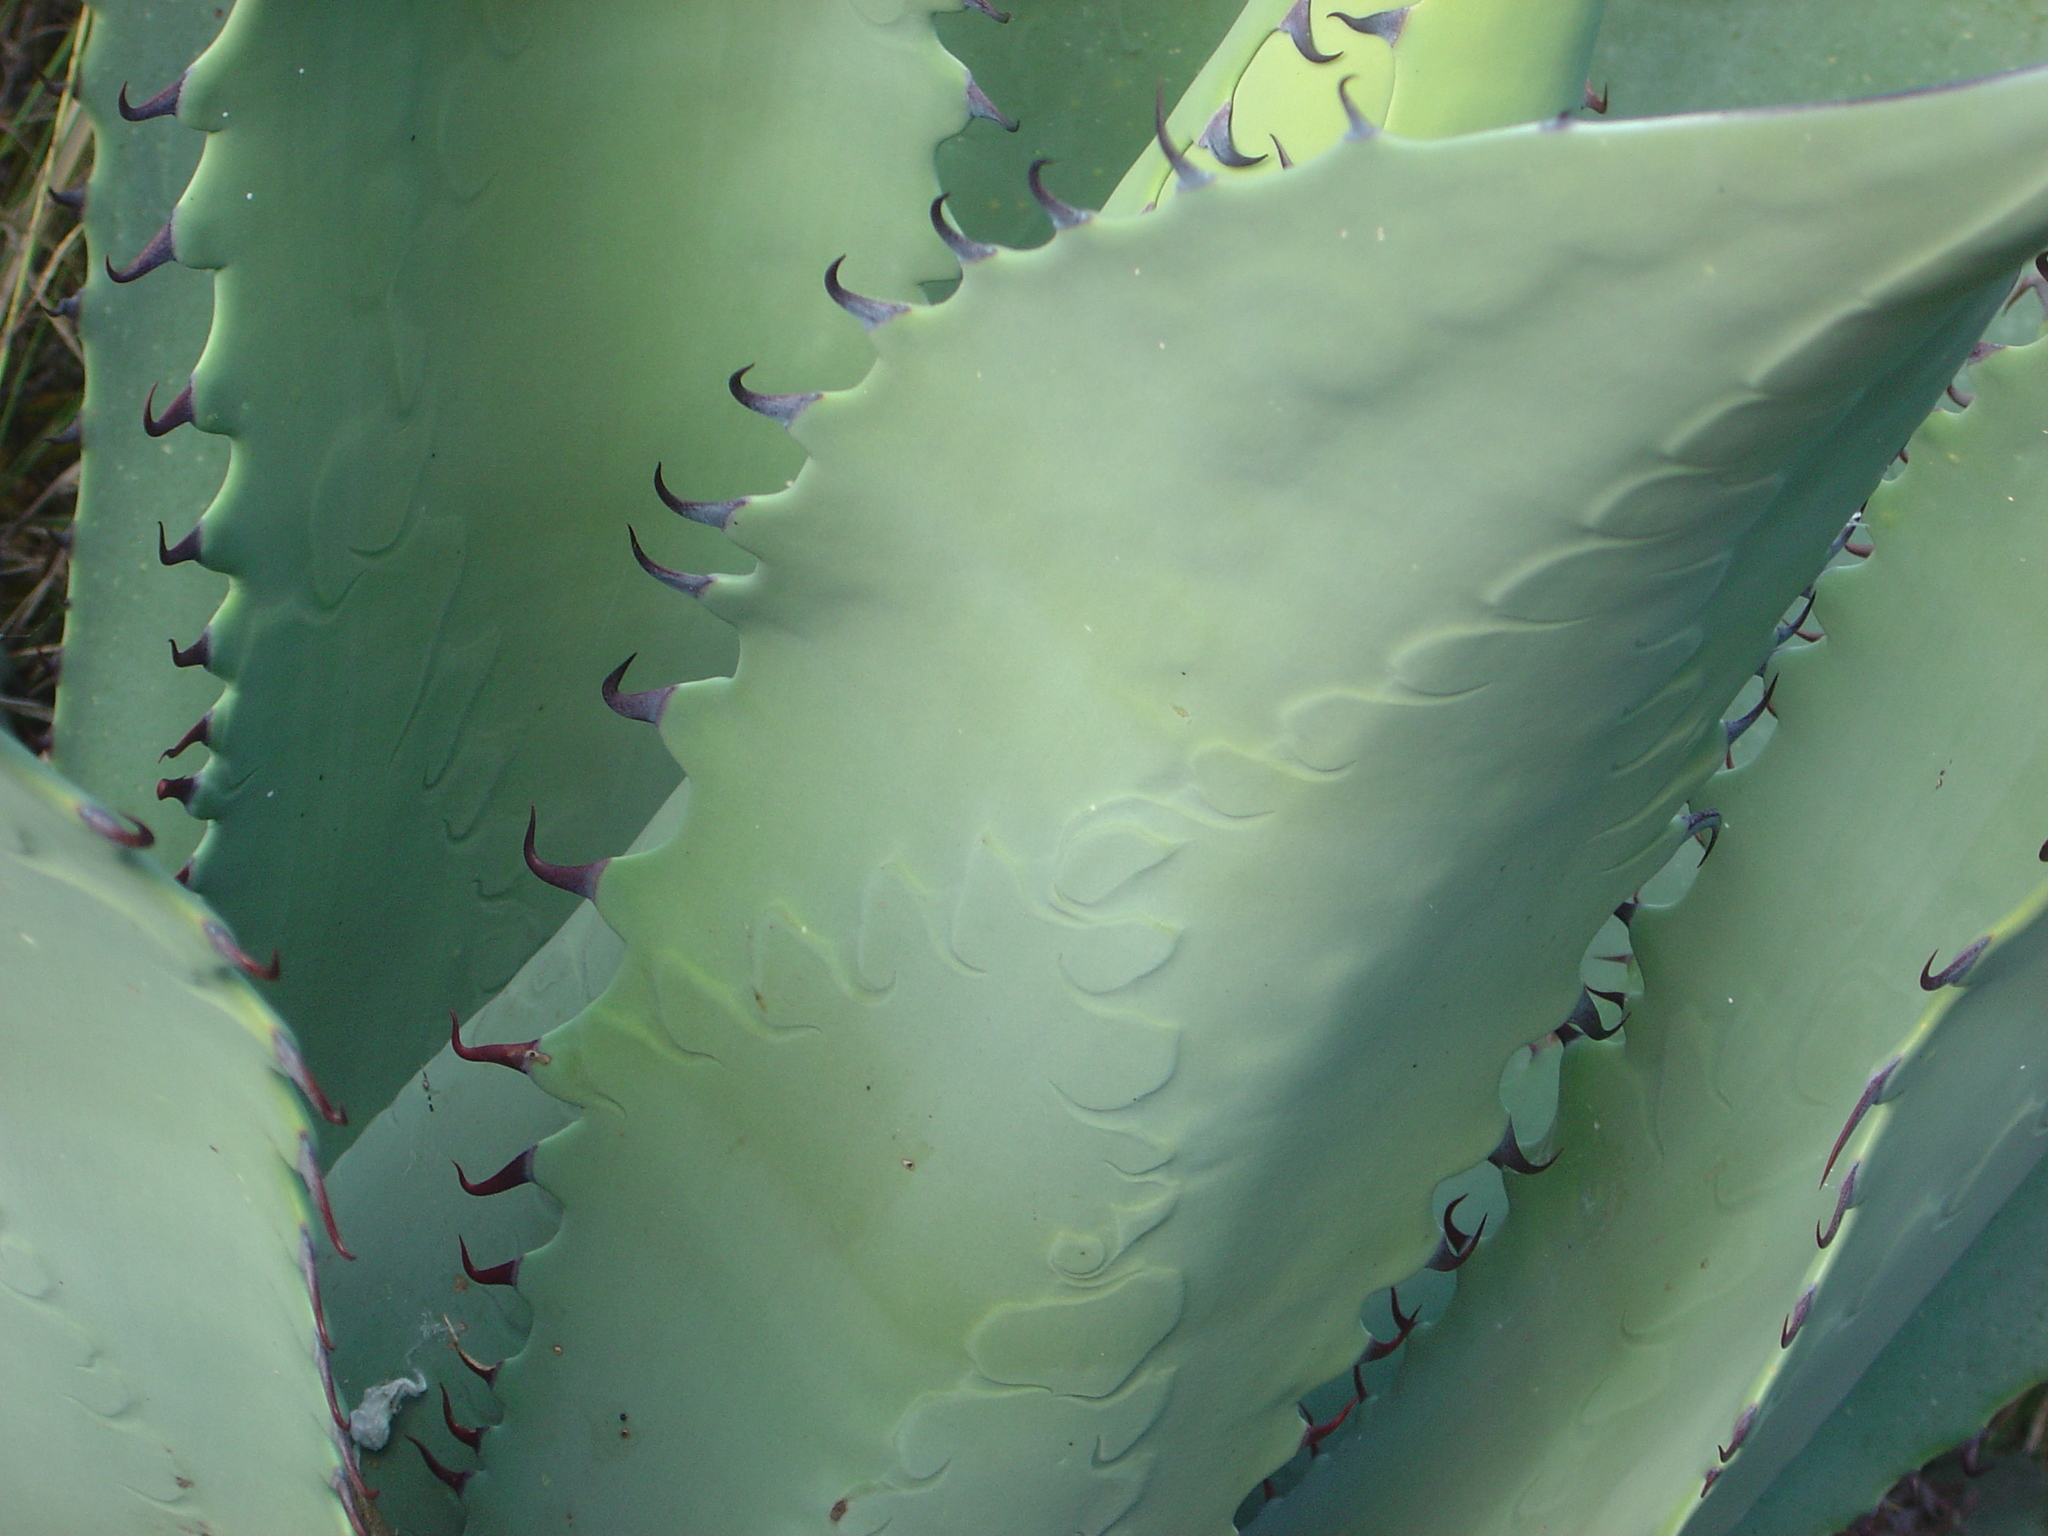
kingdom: Plantae
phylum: Tracheophyta
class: Liliopsida
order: Asparagales
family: Asparagaceae
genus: Agave
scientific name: Agave durangensis
